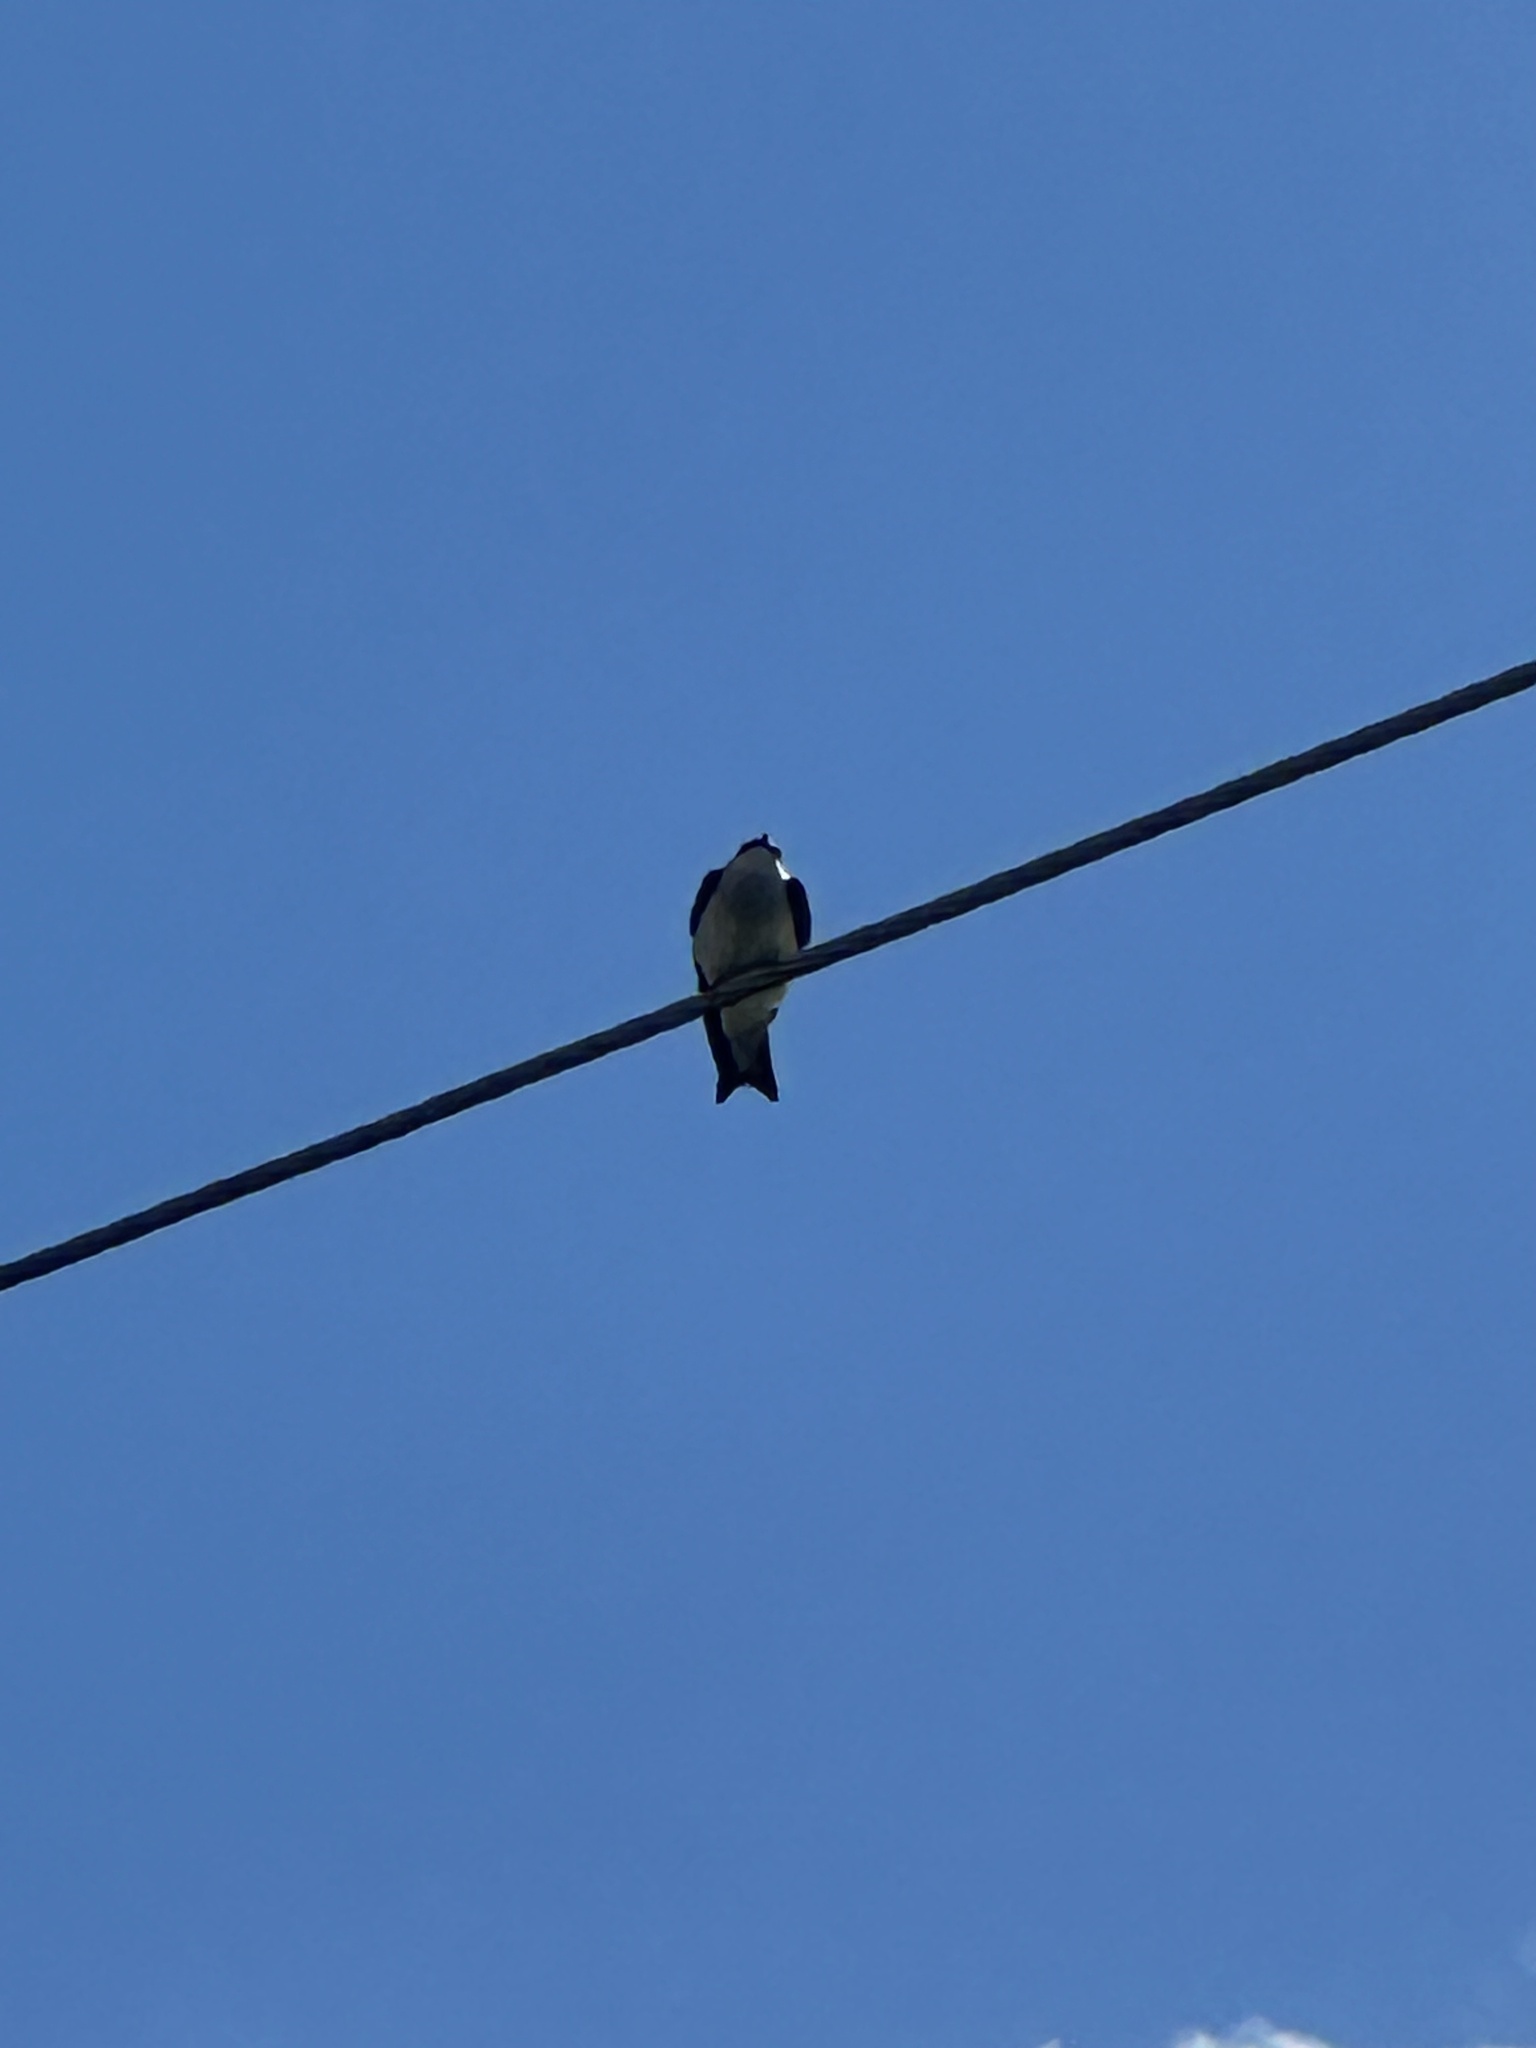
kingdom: Animalia
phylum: Chordata
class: Aves
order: Passeriformes
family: Hirundinidae
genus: Tachycineta
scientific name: Tachycineta bicolor
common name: Tree swallow
